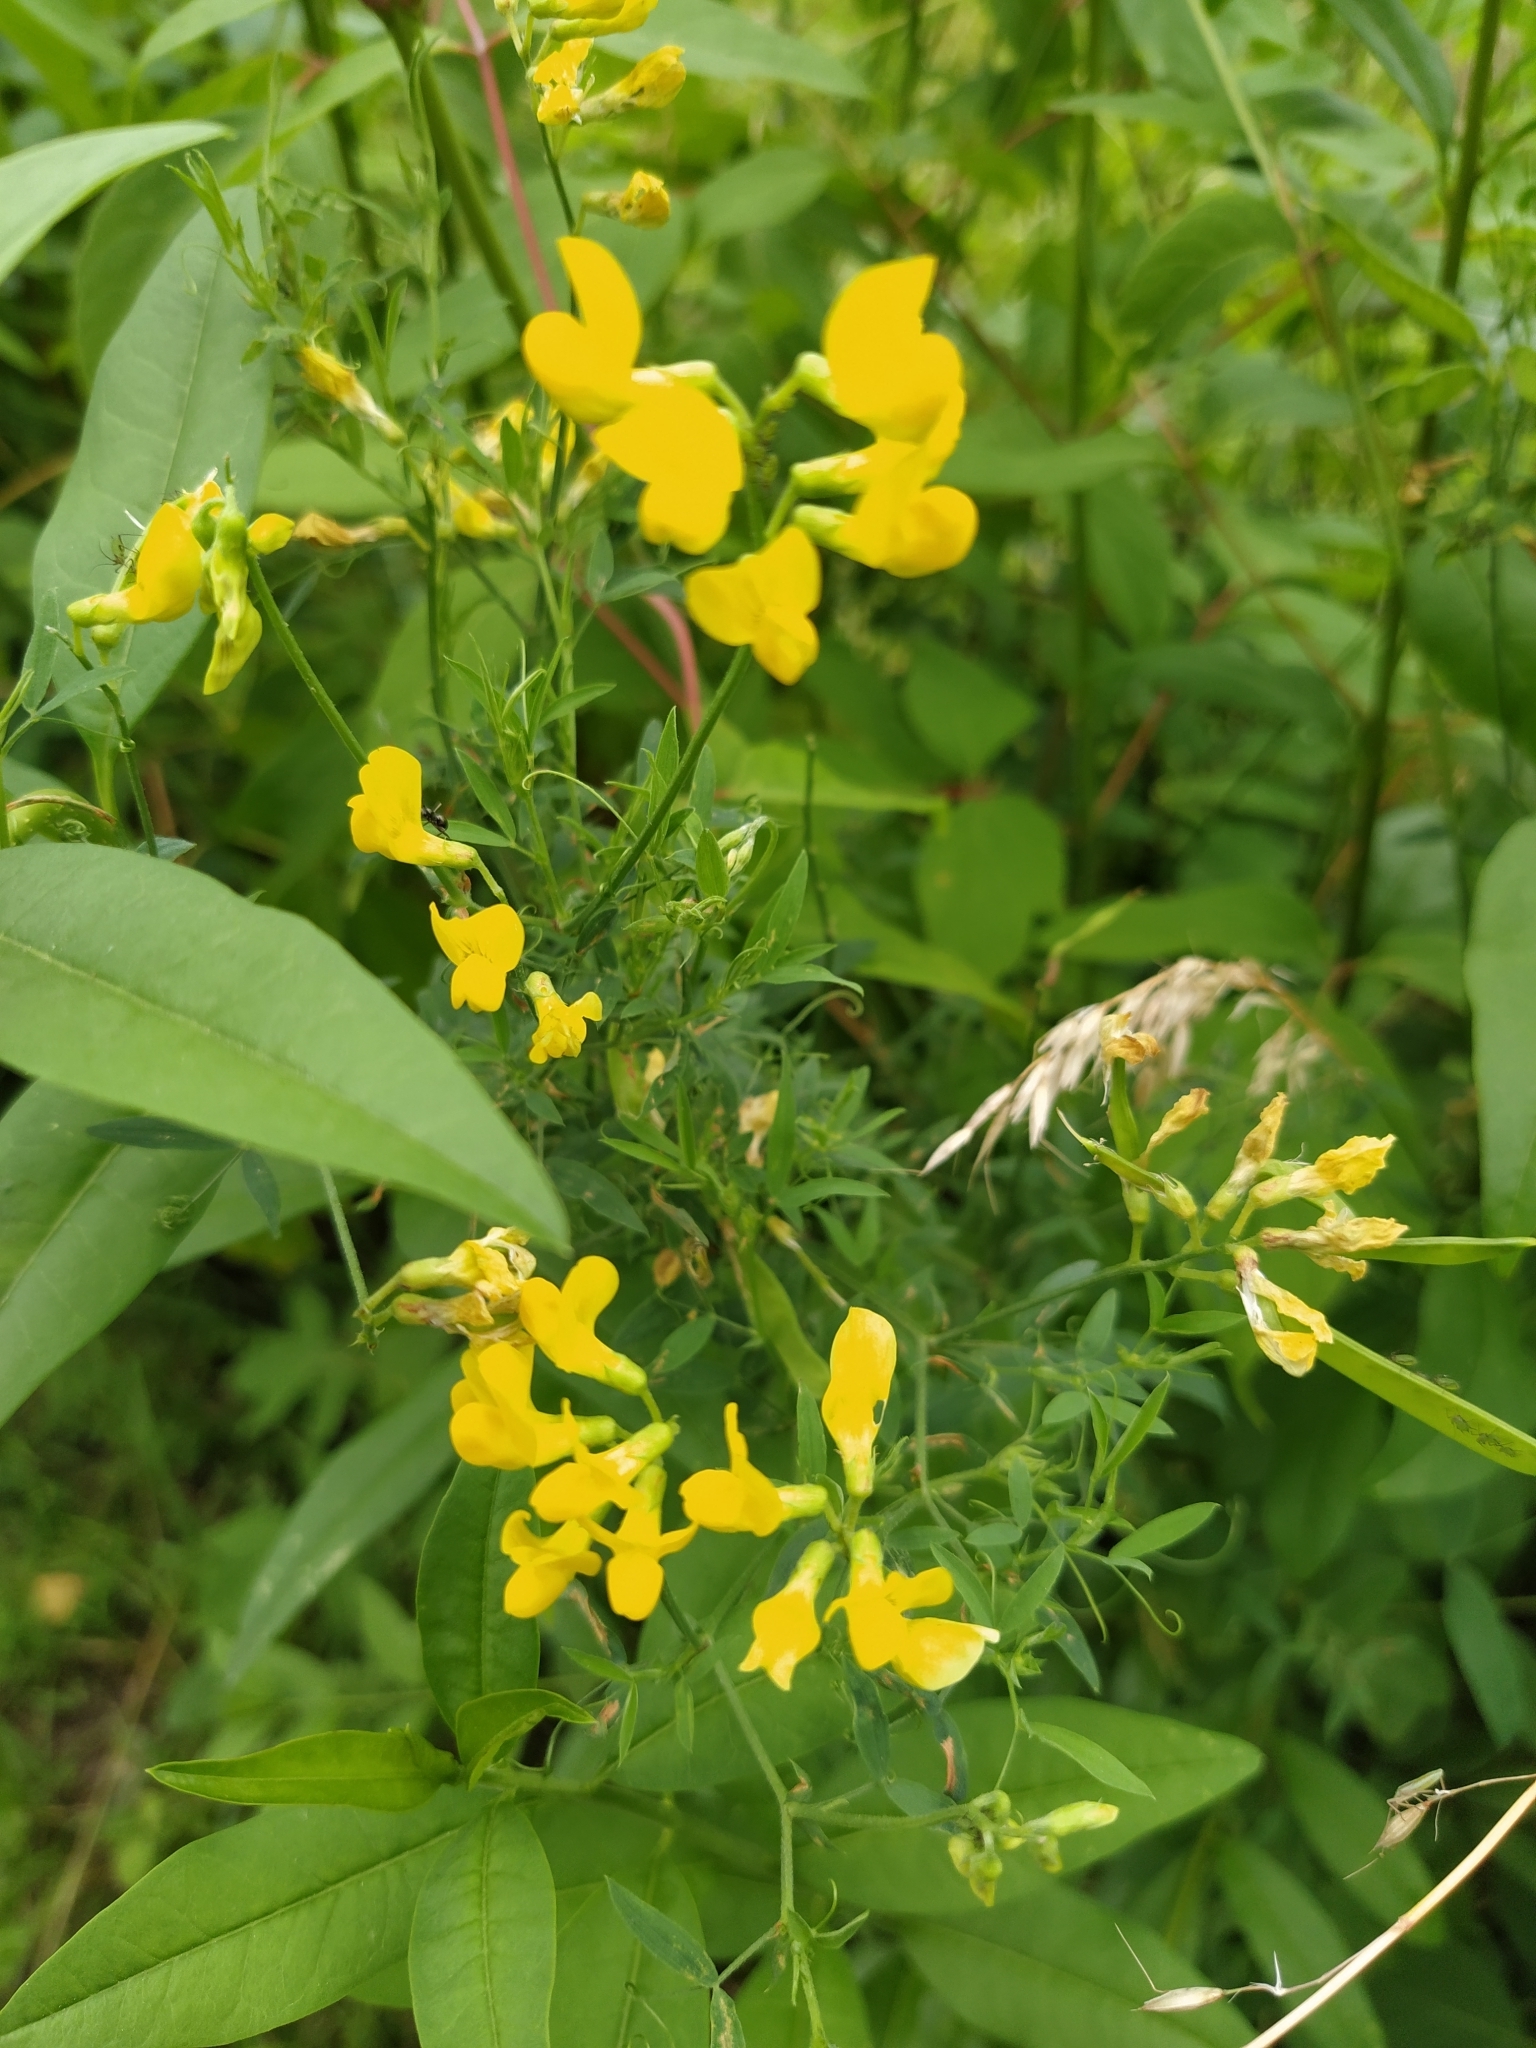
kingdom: Plantae
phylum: Tracheophyta
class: Magnoliopsida
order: Fabales
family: Fabaceae
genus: Lathyrus
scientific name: Lathyrus pratensis
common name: Meadow vetchling
